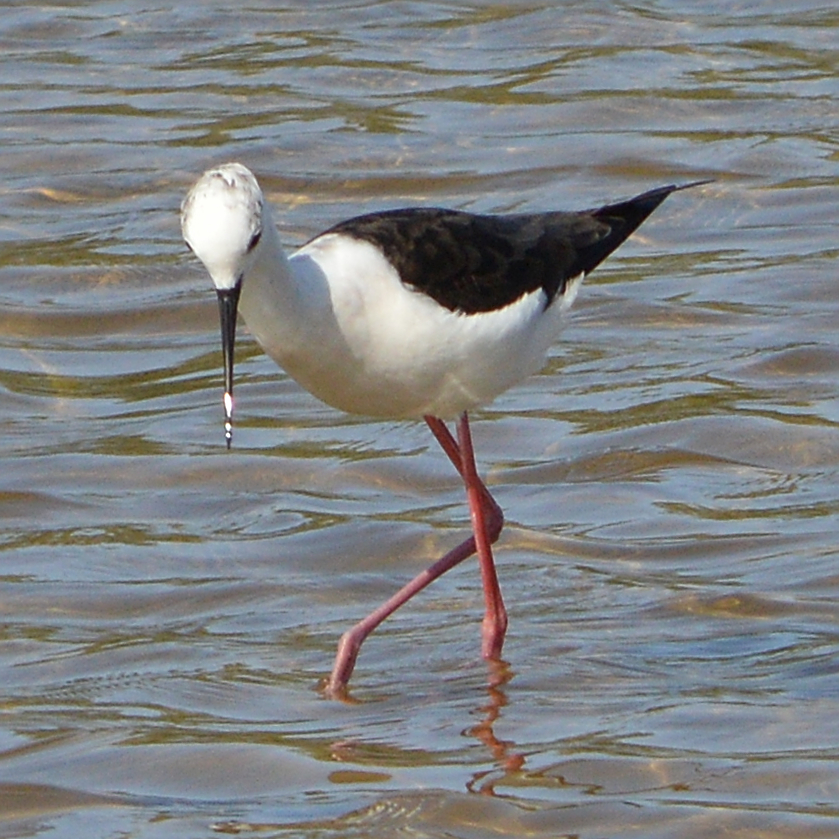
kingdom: Animalia
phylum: Chordata
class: Aves
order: Charadriiformes
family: Recurvirostridae
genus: Himantopus
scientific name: Himantopus himantopus
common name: Black-winged stilt
